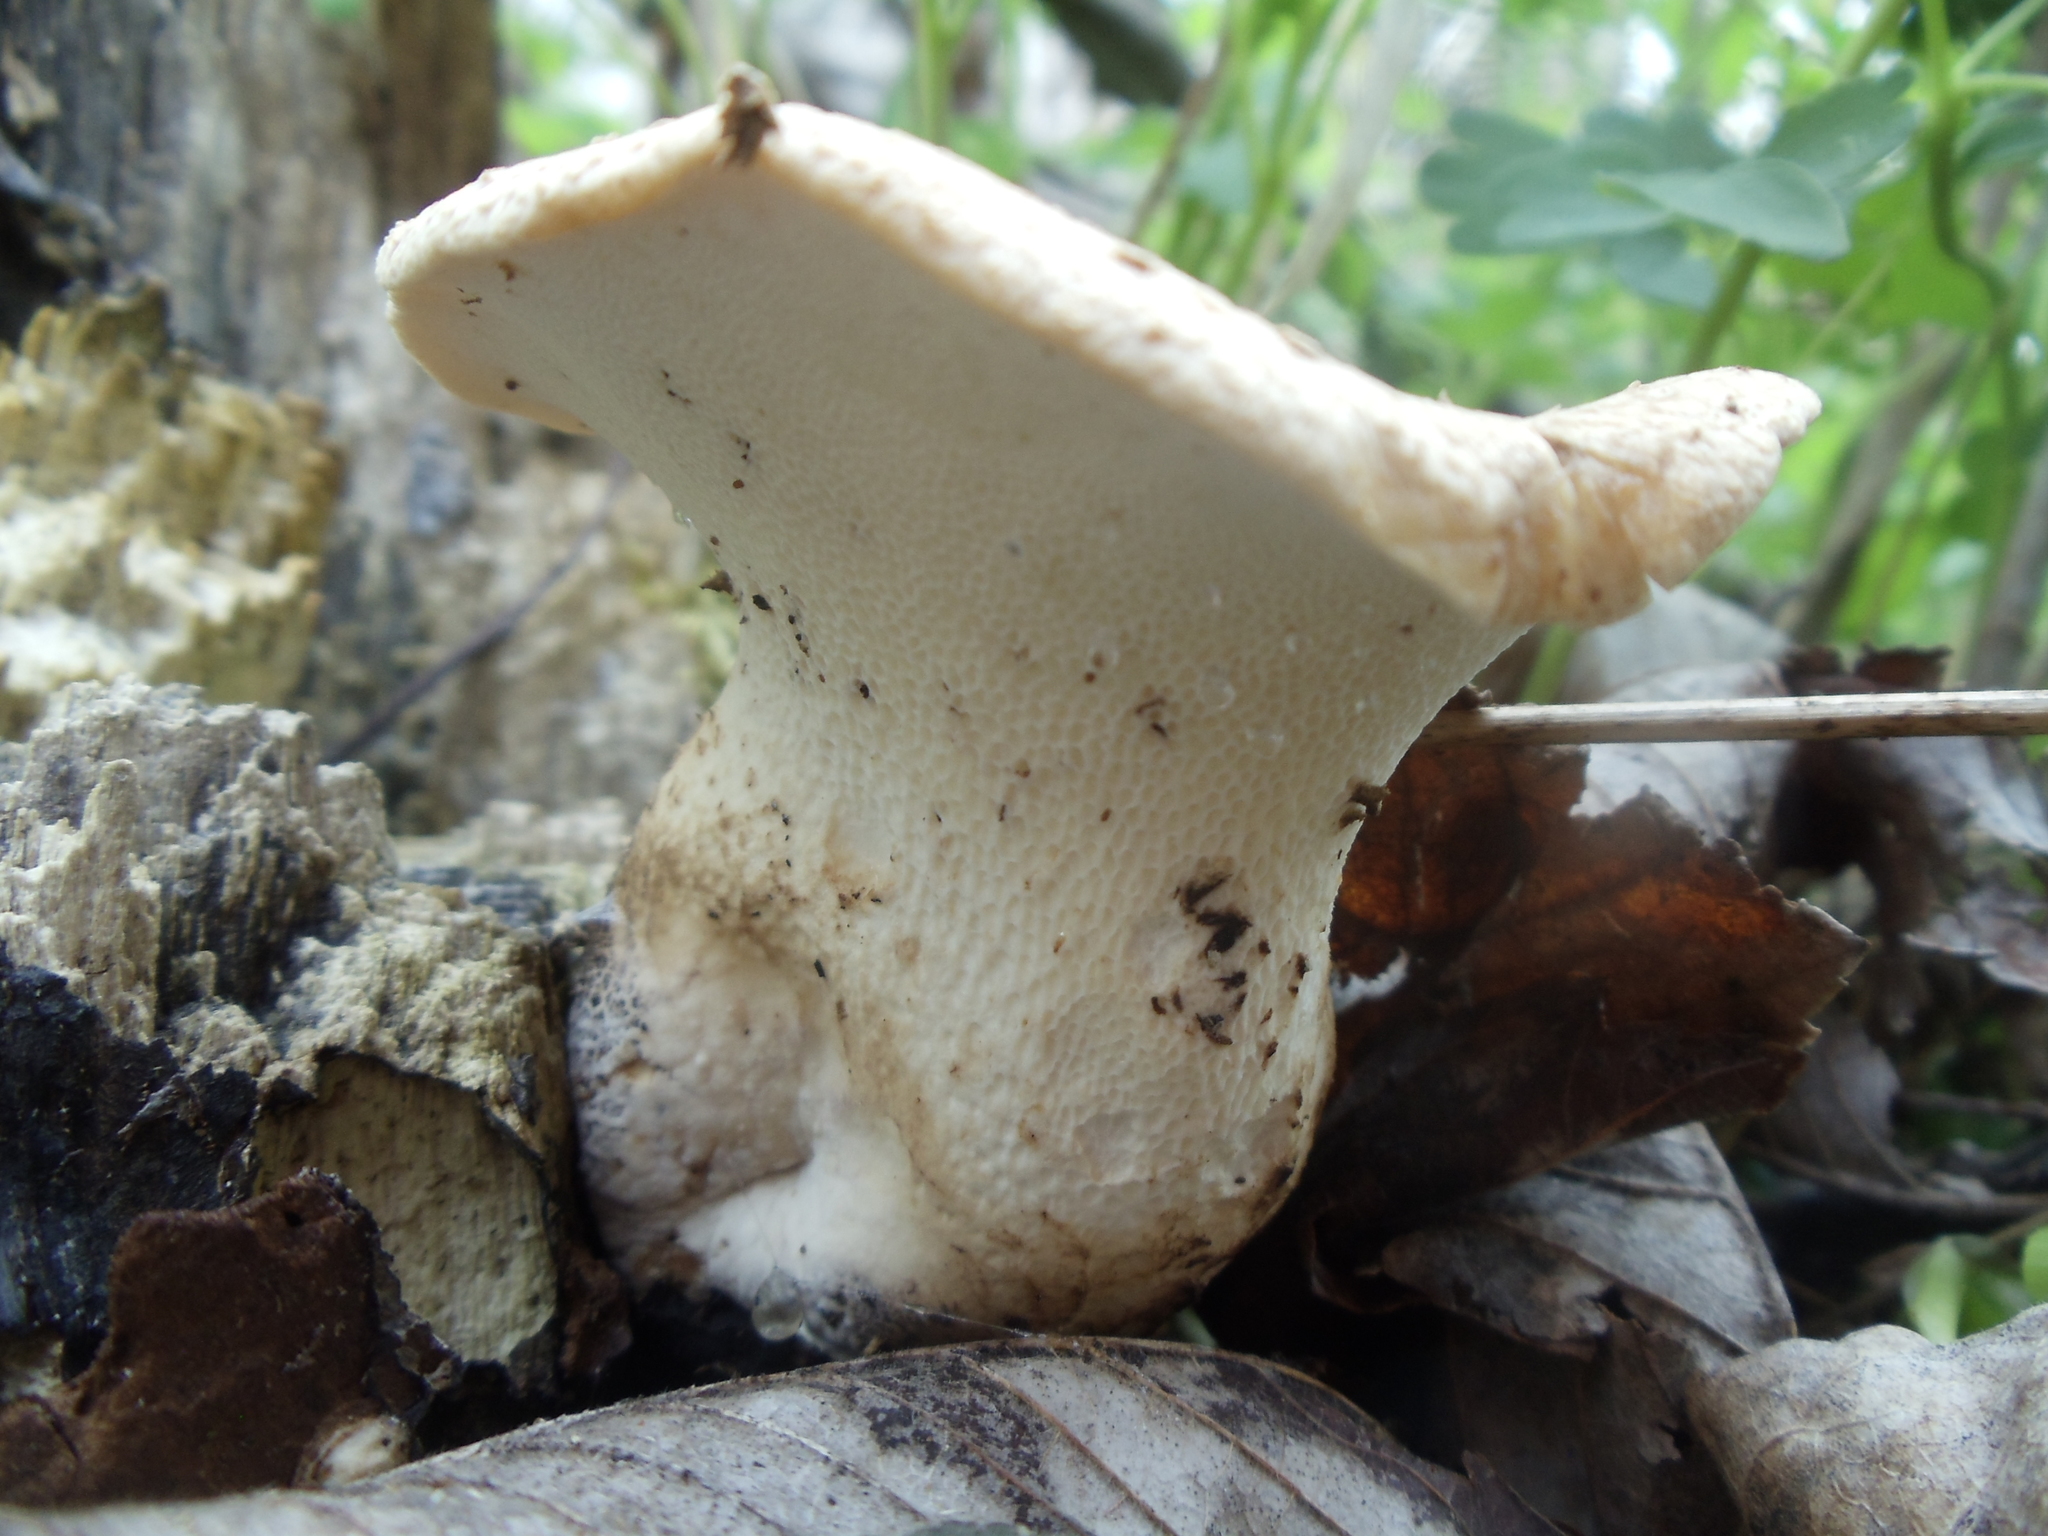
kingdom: Fungi
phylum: Basidiomycota
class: Agaricomycetes
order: Polyporales
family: Polyporaceae
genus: Cerioporus
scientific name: Cerioporus squamosus
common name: Dryad's saddle
